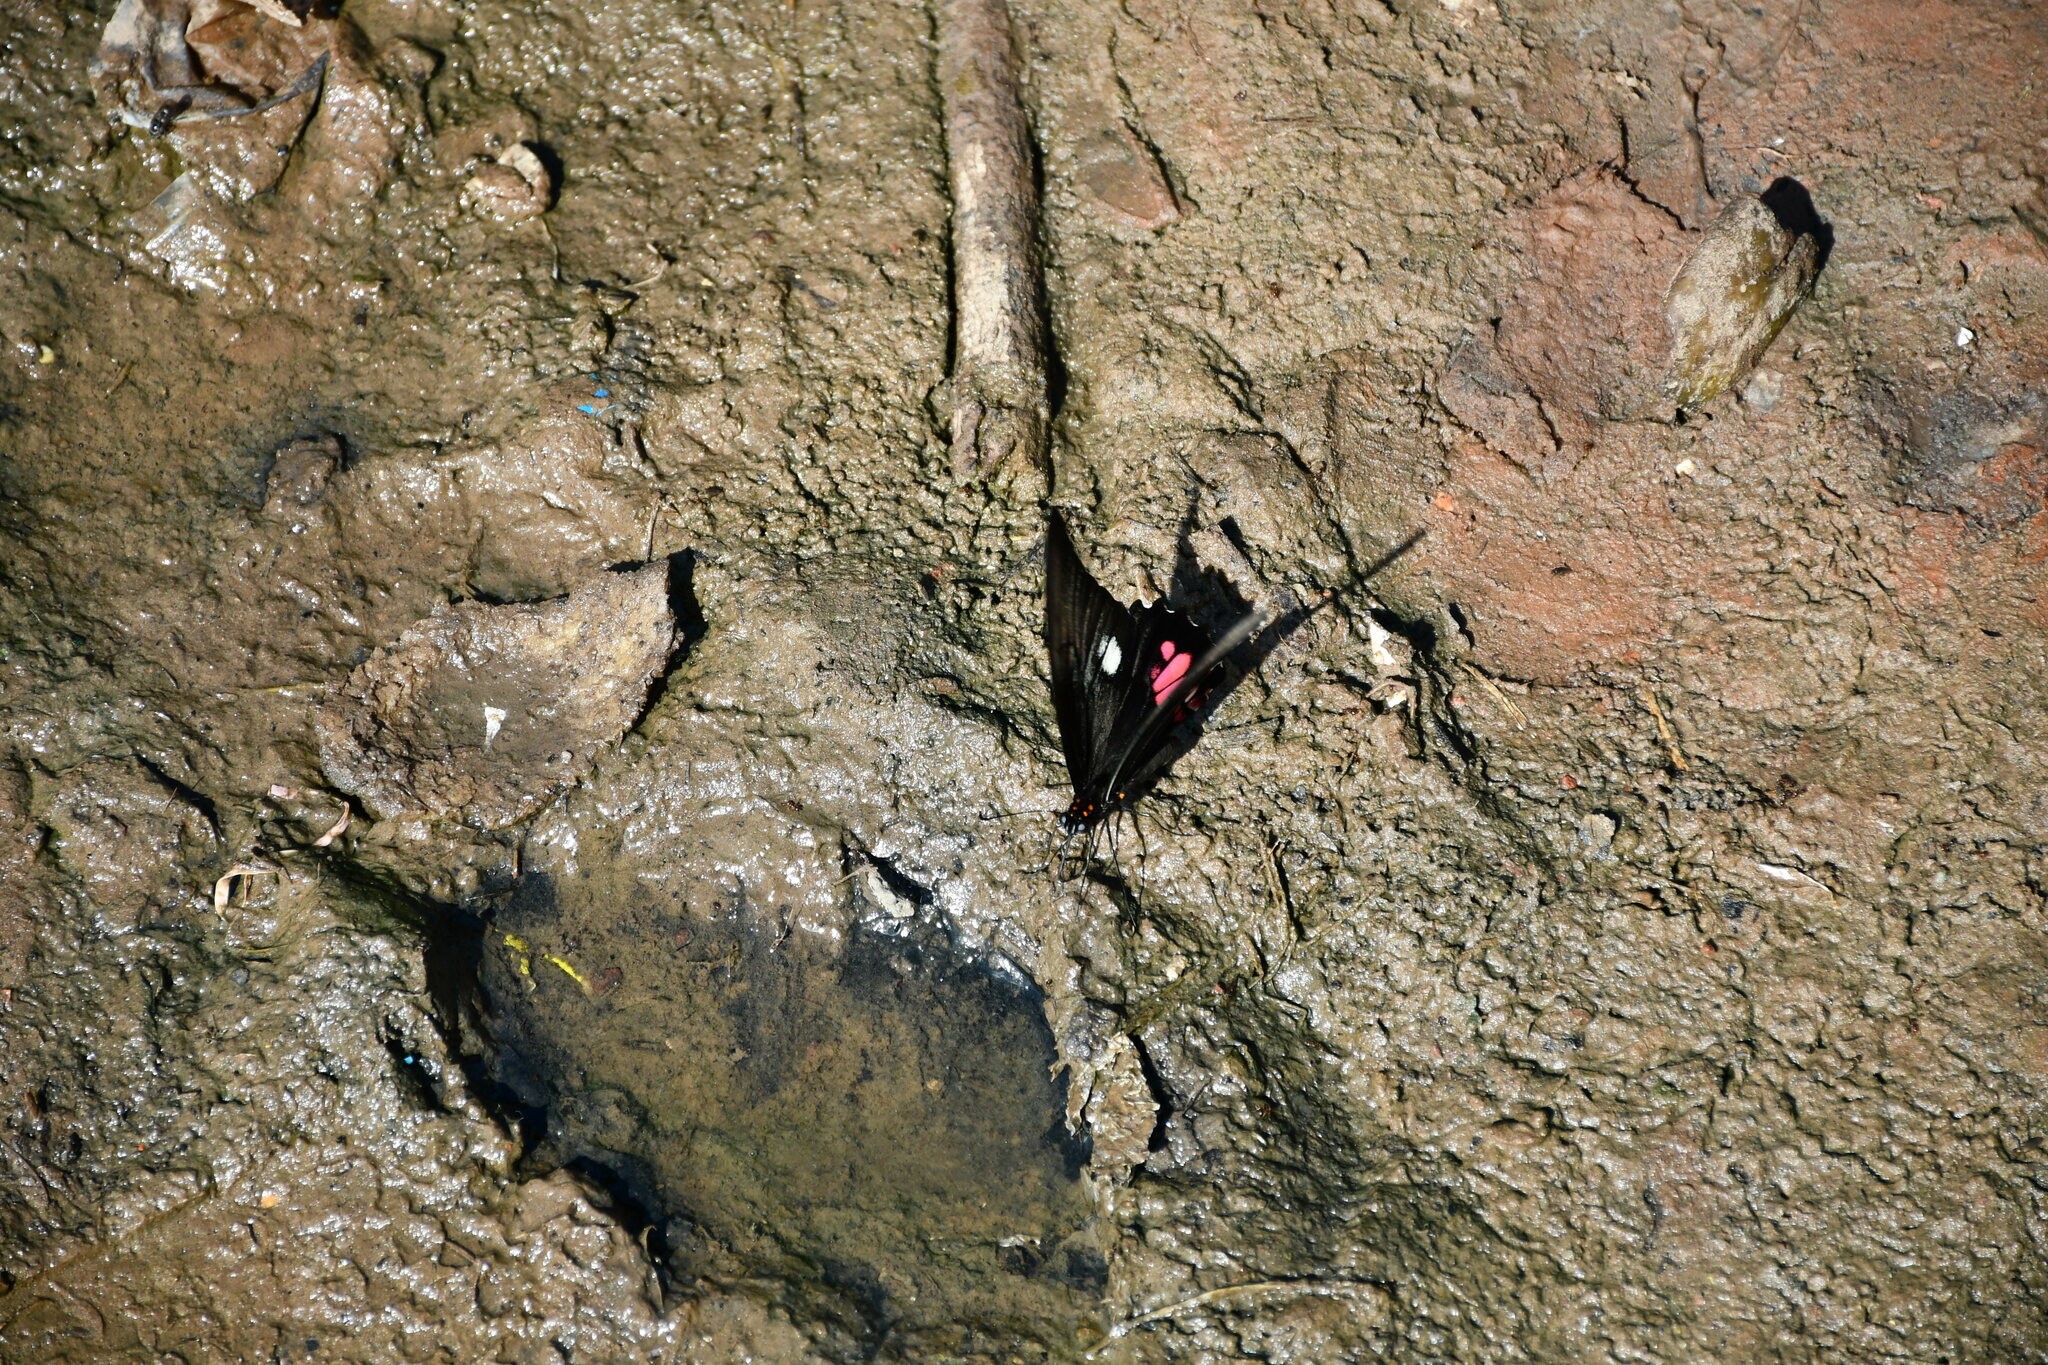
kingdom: Animalia
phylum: Arthropoda
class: Insecta
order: Lepidoptera
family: Papilionidae
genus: Papilio
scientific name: Papilio anchisiades
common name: Idaes swallowtail
